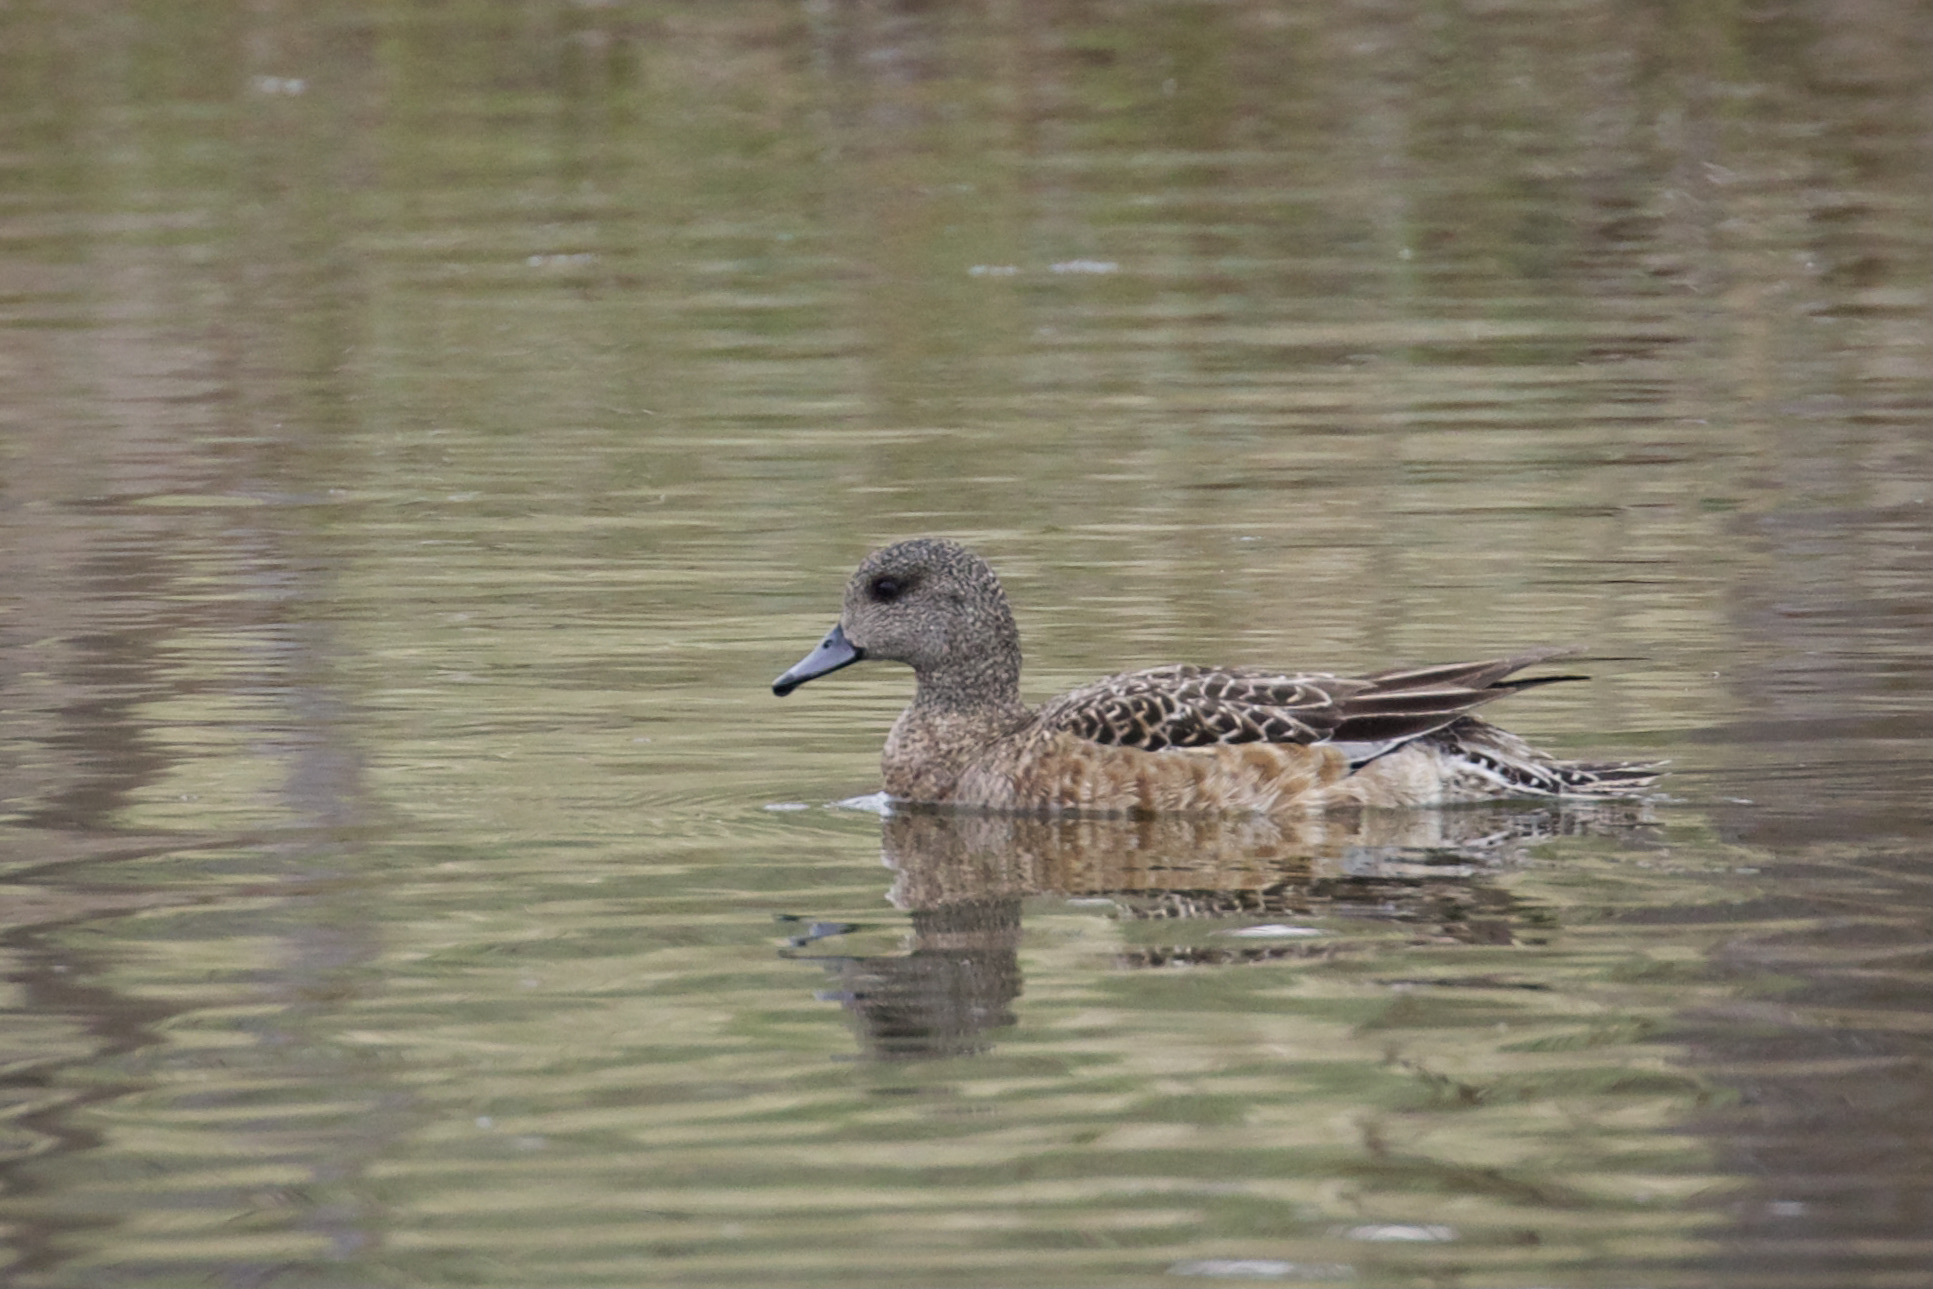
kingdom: Animalia
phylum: Chordata
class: Aves
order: Anseriformes
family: Anatidae
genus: Mareca
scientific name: Mareca americana
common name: American wigeon
